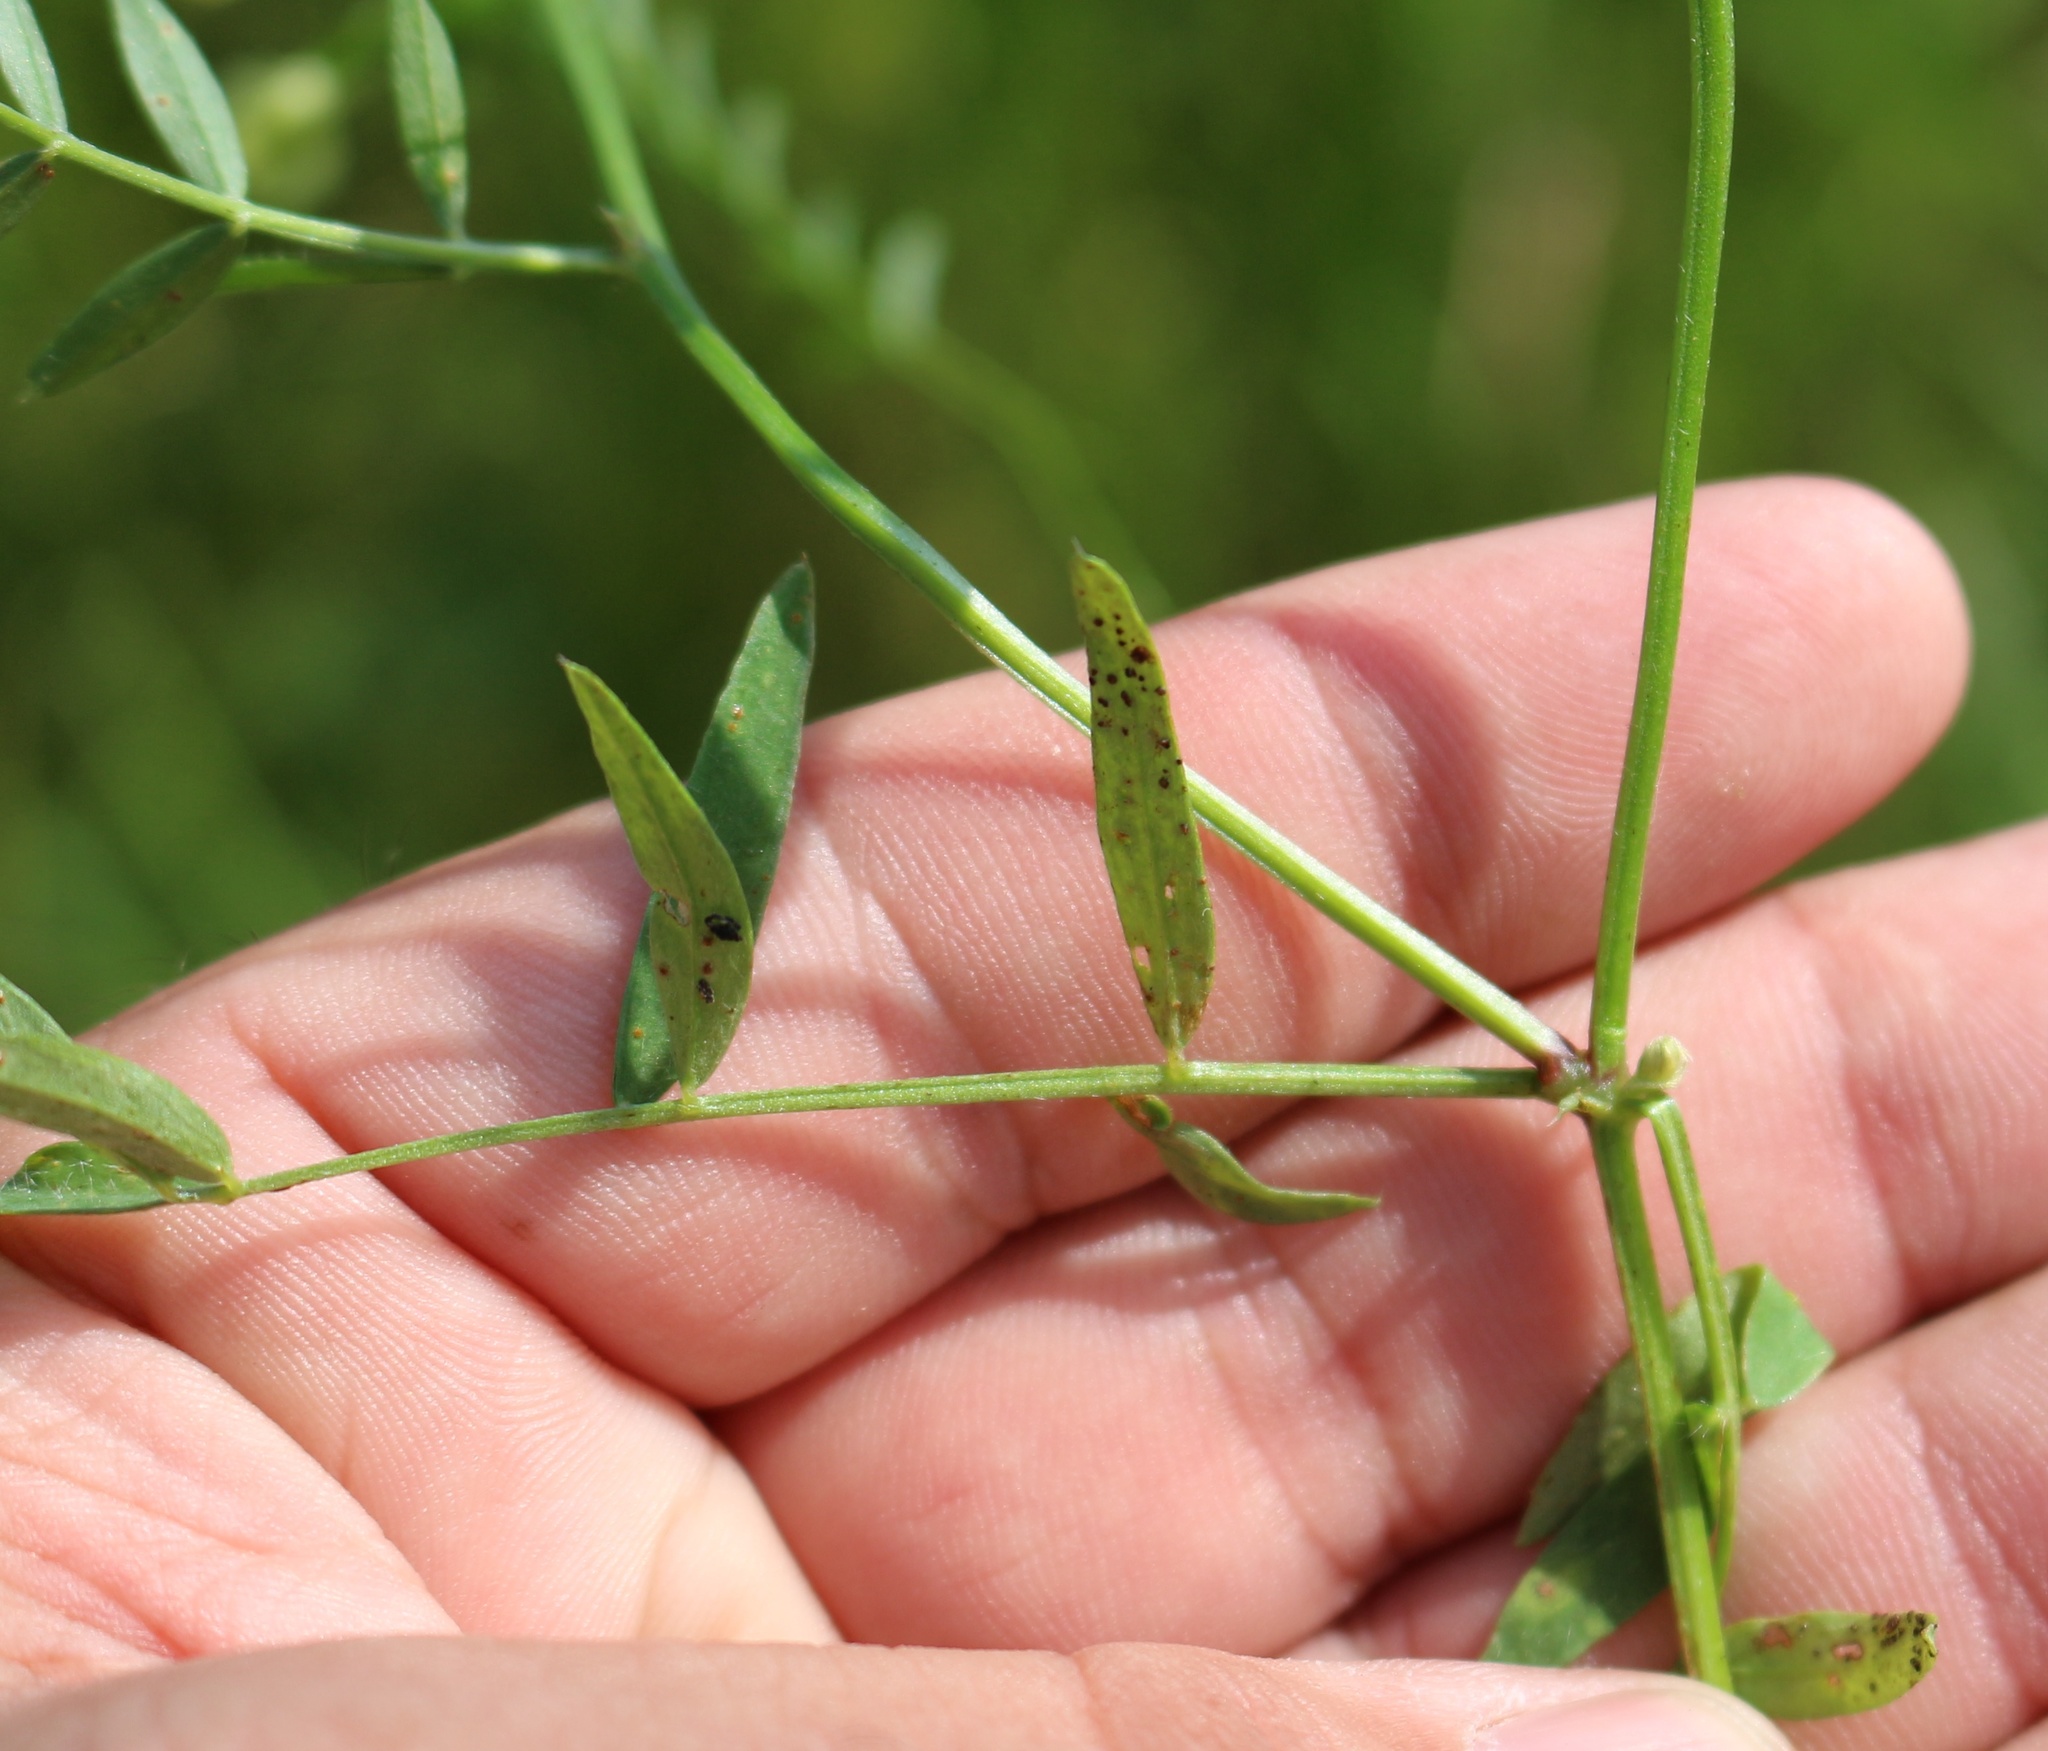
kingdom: Plantae
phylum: Tracheophyta
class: Magnoliopsida
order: Fabales
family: Fabaceae
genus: Vicia
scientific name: Vicia ciliatula
